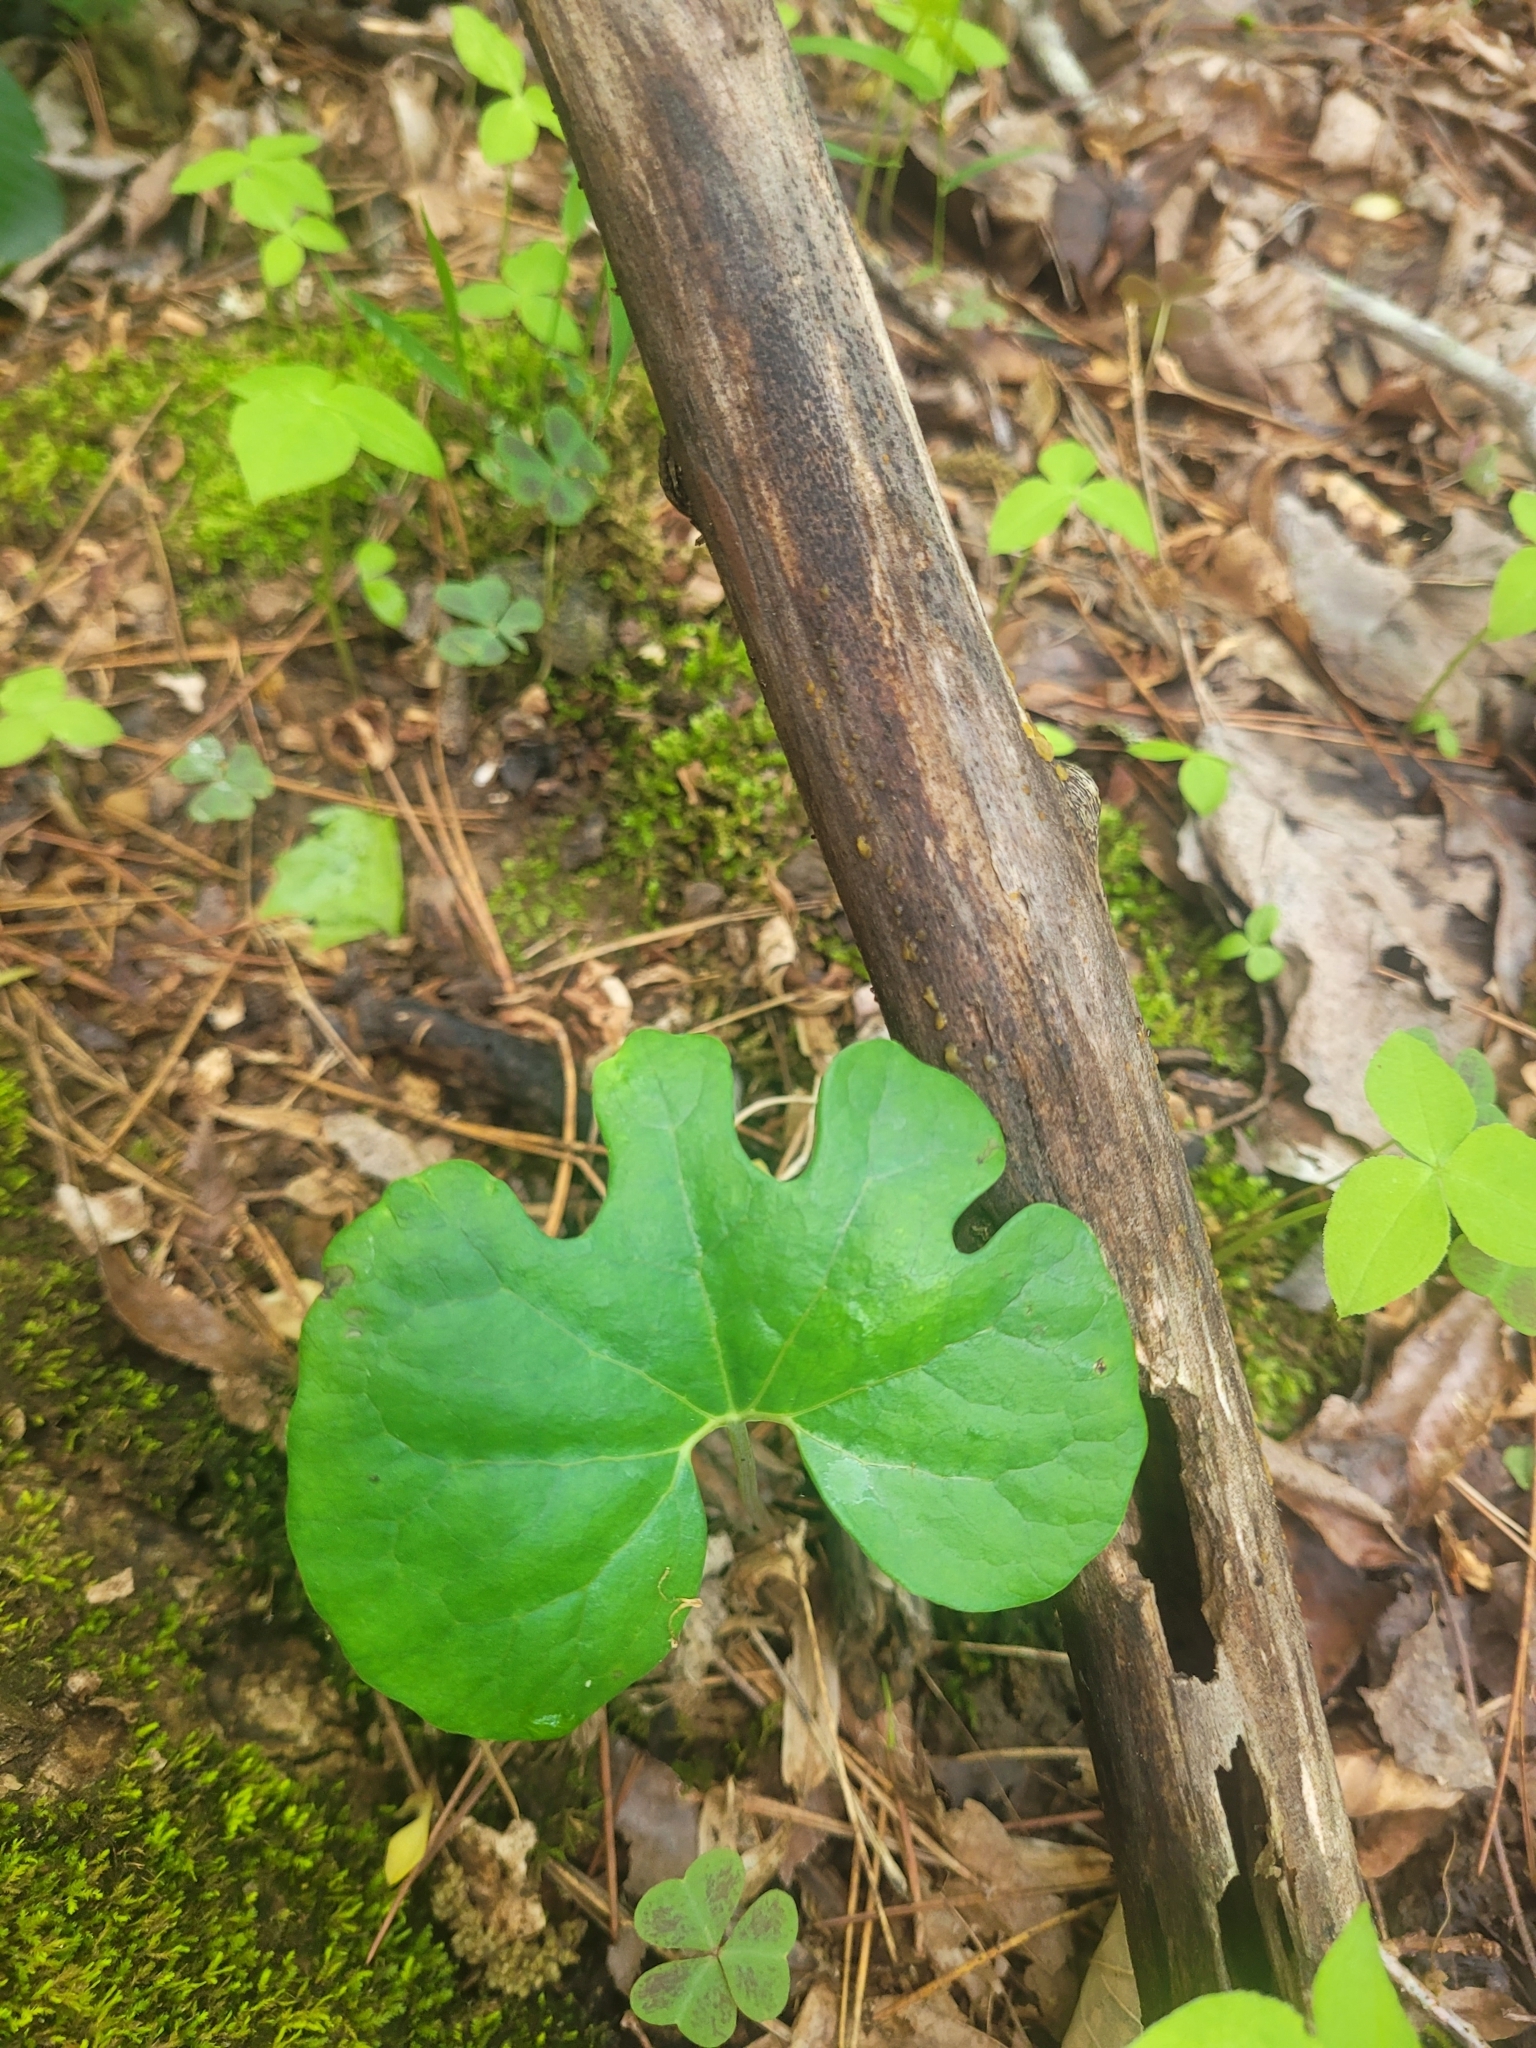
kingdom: Plantae
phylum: Tracheophyta
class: Magnoliopsida
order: Ranunculales
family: Papaveraceae
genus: Sanguinaria
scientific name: Sanguinaria canadensis
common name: Bloodroot
